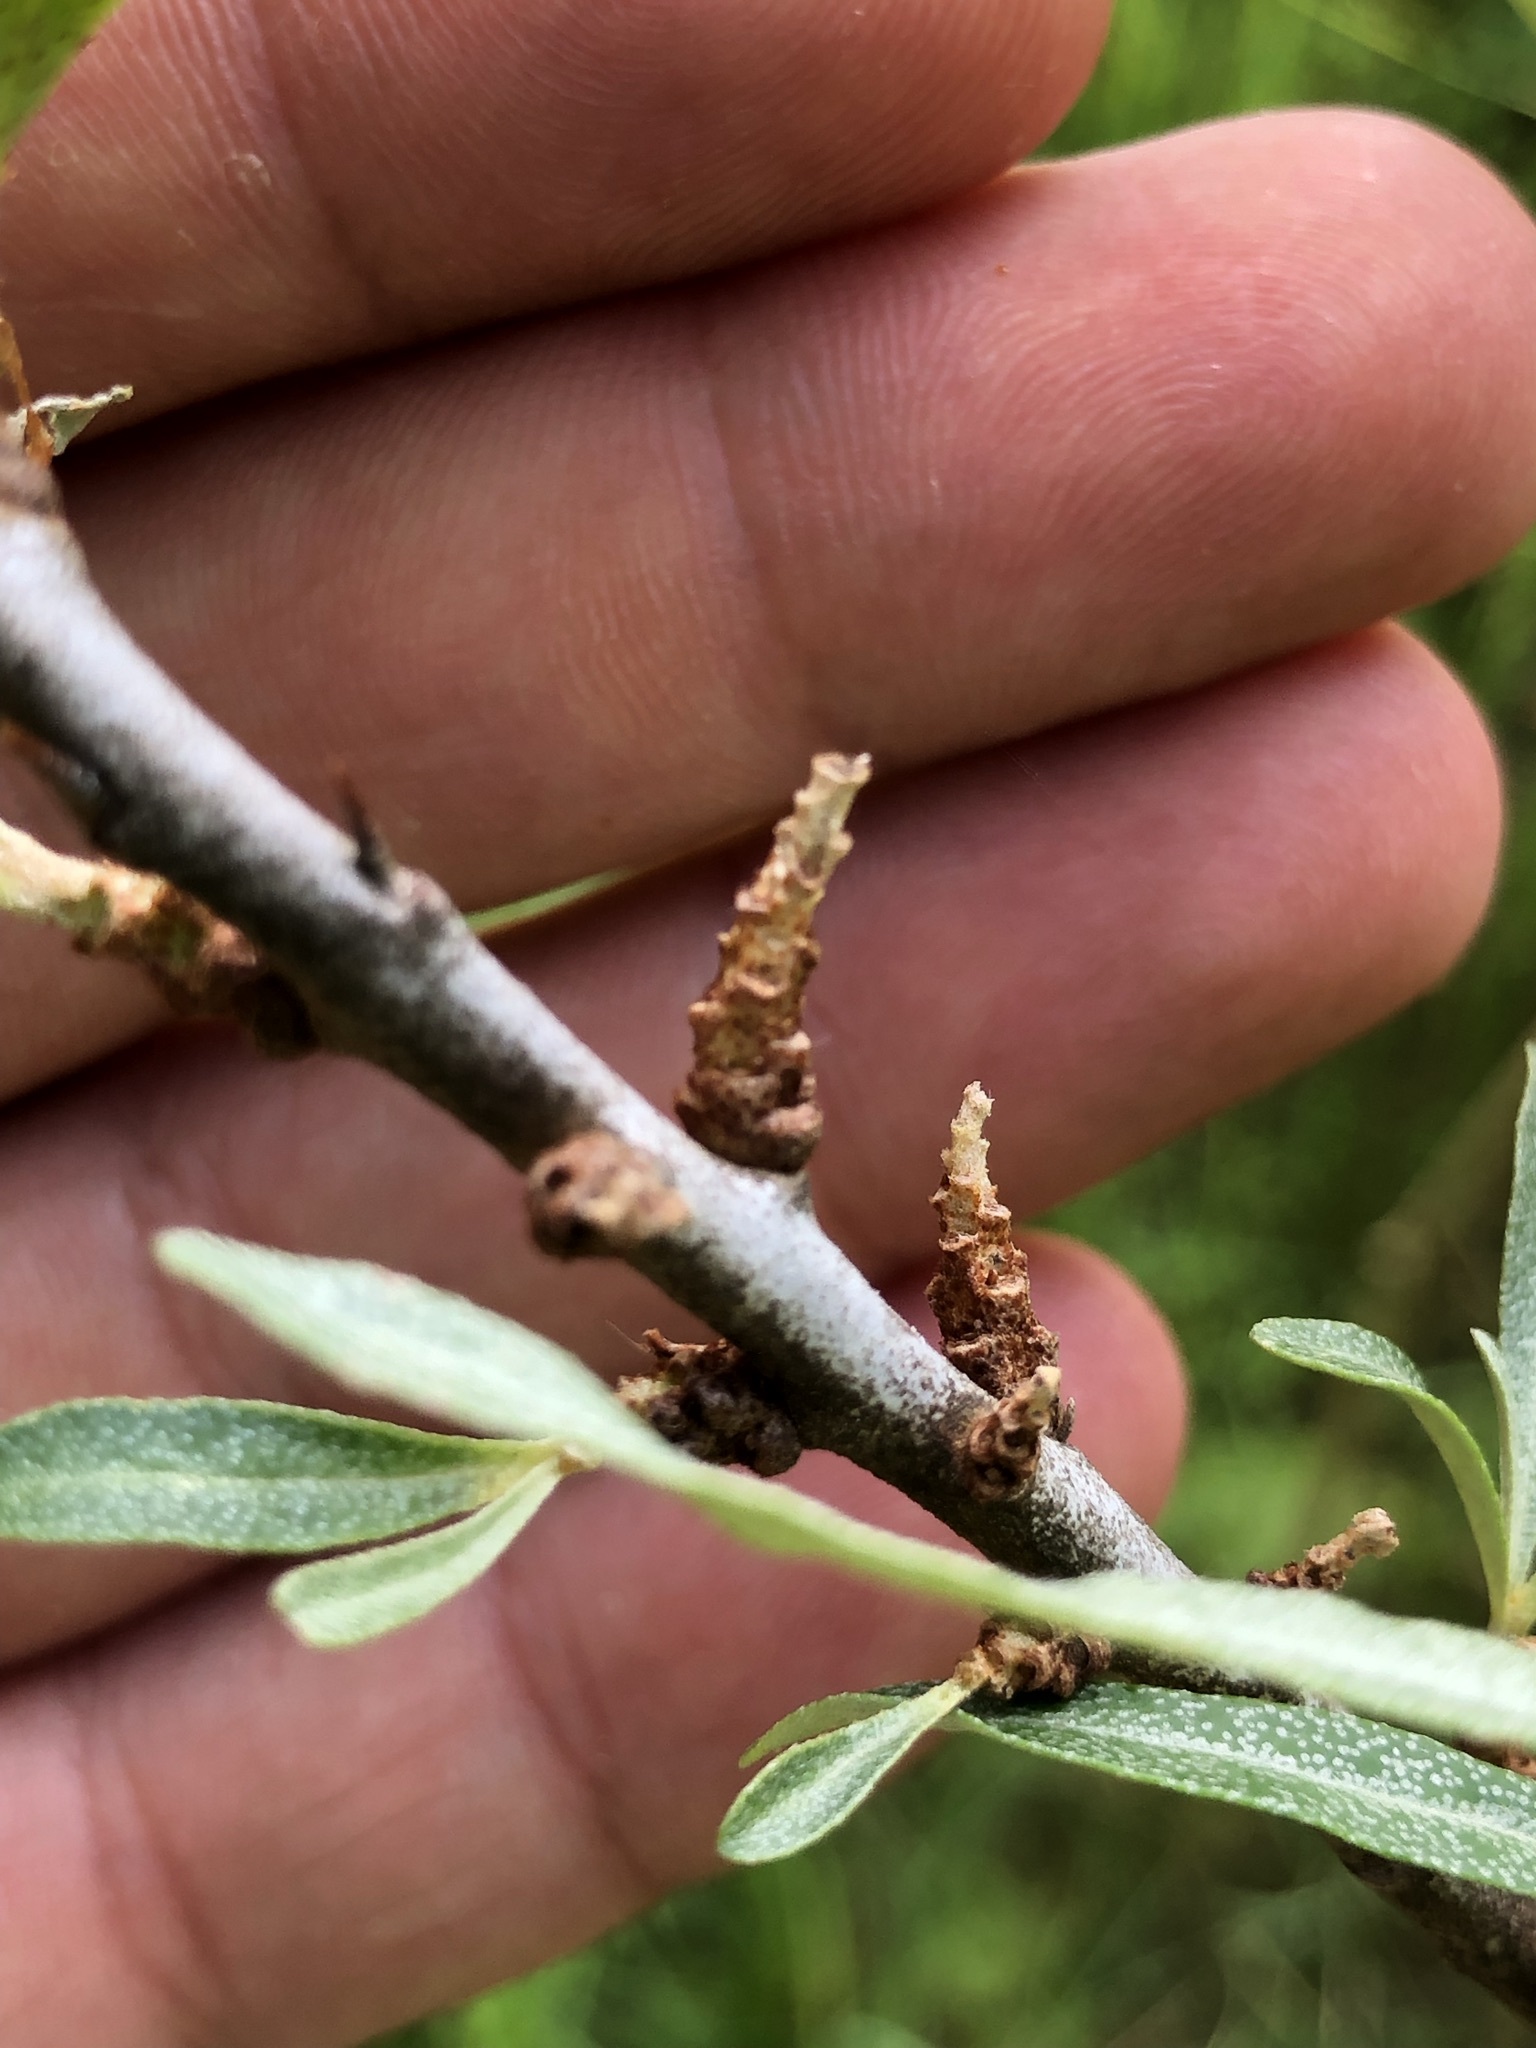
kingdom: Plantae
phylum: Tracheophyta
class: Magnoliopsida
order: Rosales
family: Elaeagnaceae
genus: Hippophae
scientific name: Hippophae rhamnoides
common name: Sea-buckthorn
